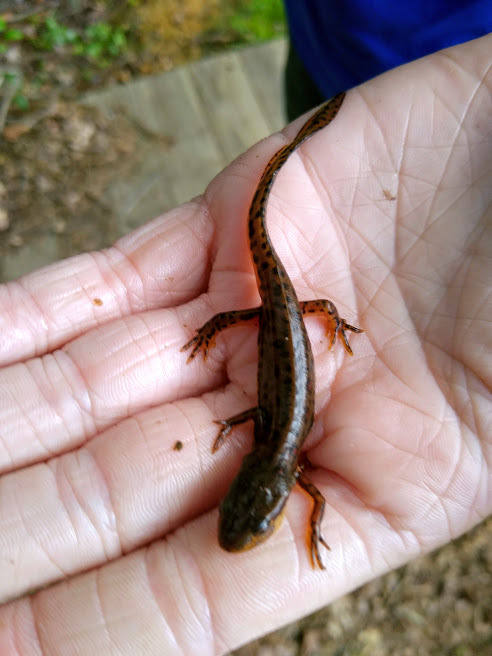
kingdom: Animalia
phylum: Chordata
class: Amphibia
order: Caudata
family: Salamandridae
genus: Notophthalmus
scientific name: Notophthalmus viridescens
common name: Eastern newt
